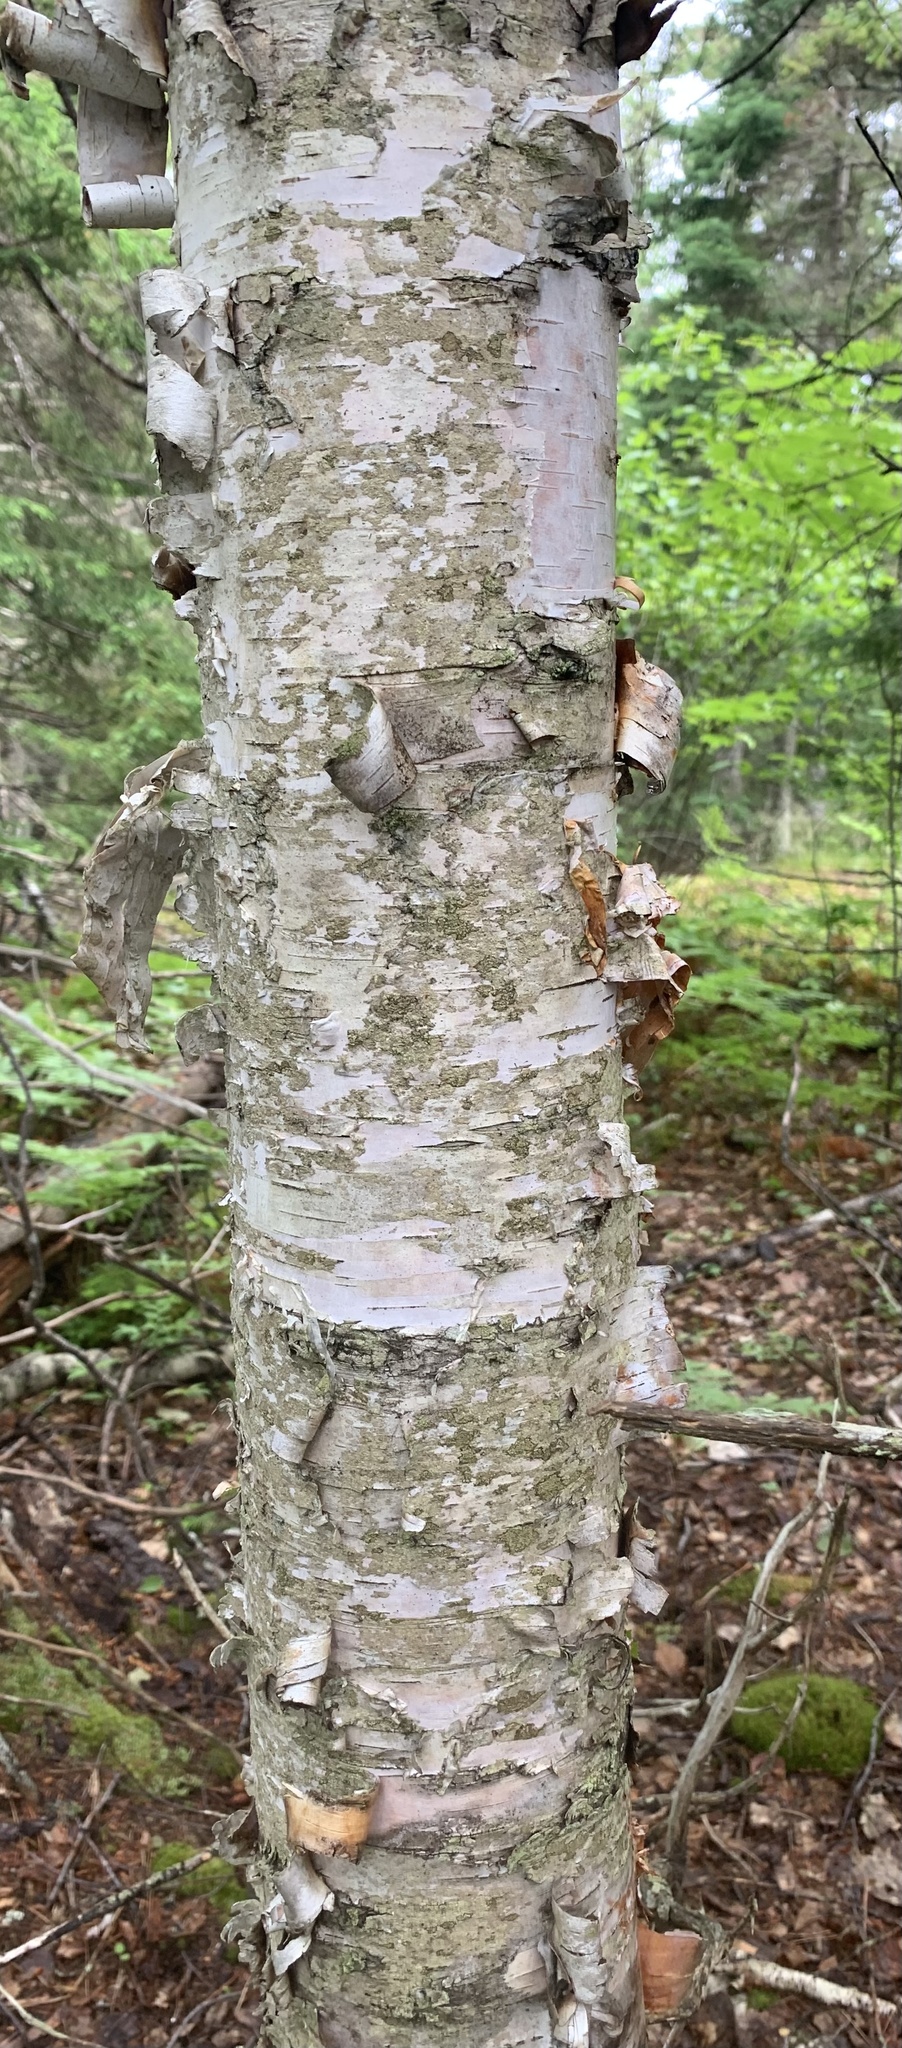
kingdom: Plantae
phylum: Tracheophyta
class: Magnoliopsida
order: Fagales
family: Betulaceae
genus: Betula
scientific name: Betula papyrifera
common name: Paper birch
